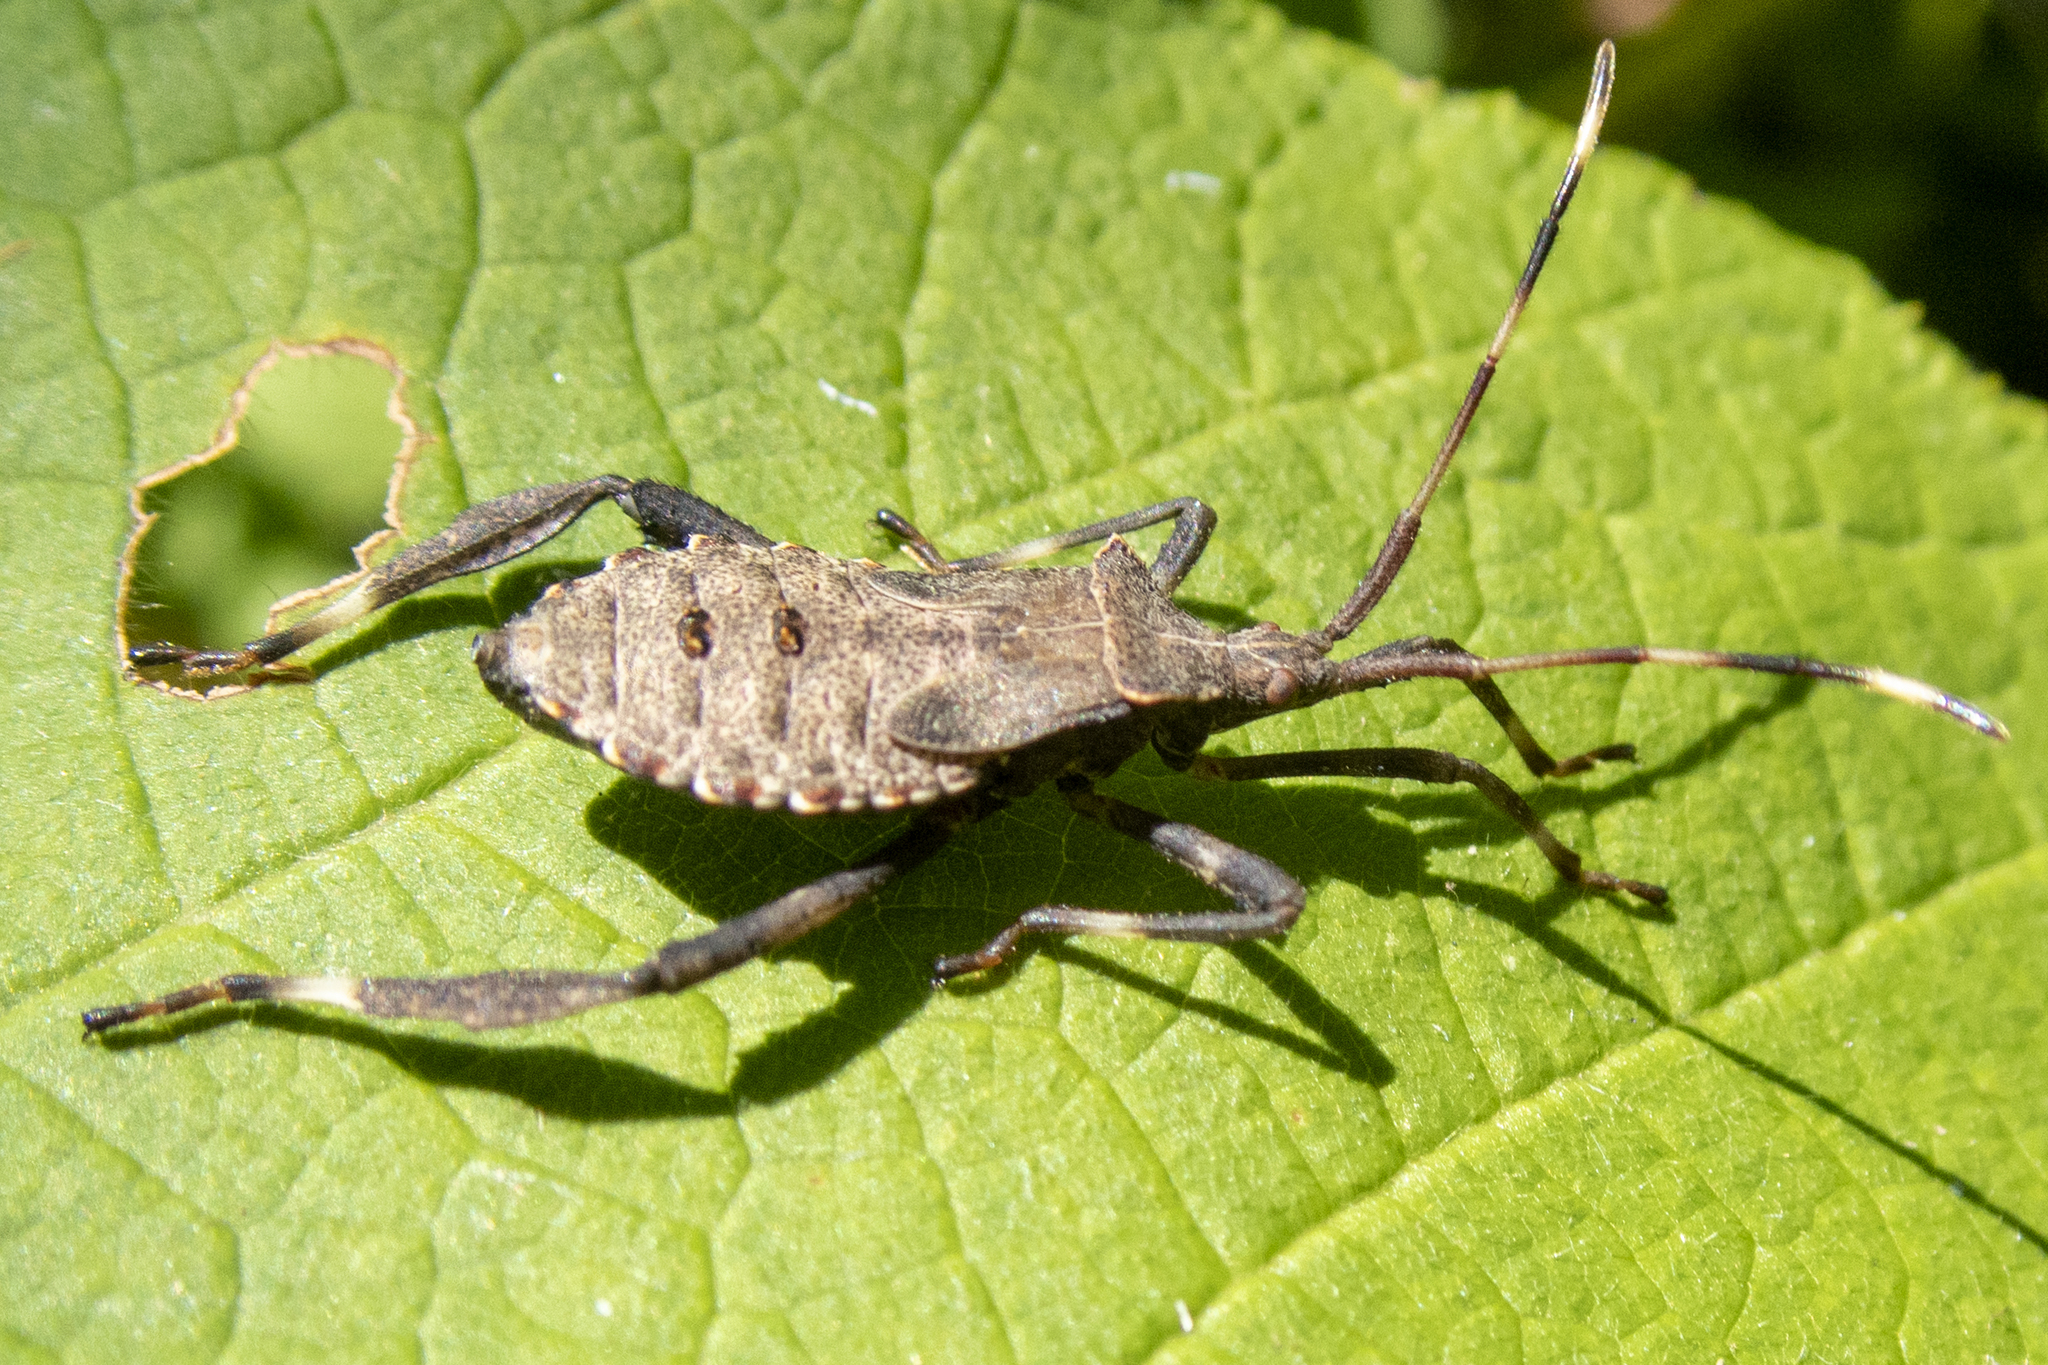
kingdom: Animalia
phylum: Arthropoda
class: Insecta
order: Hemiptera
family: Coreidae
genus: Acanthocephala
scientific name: Acanthocephala terminalis
